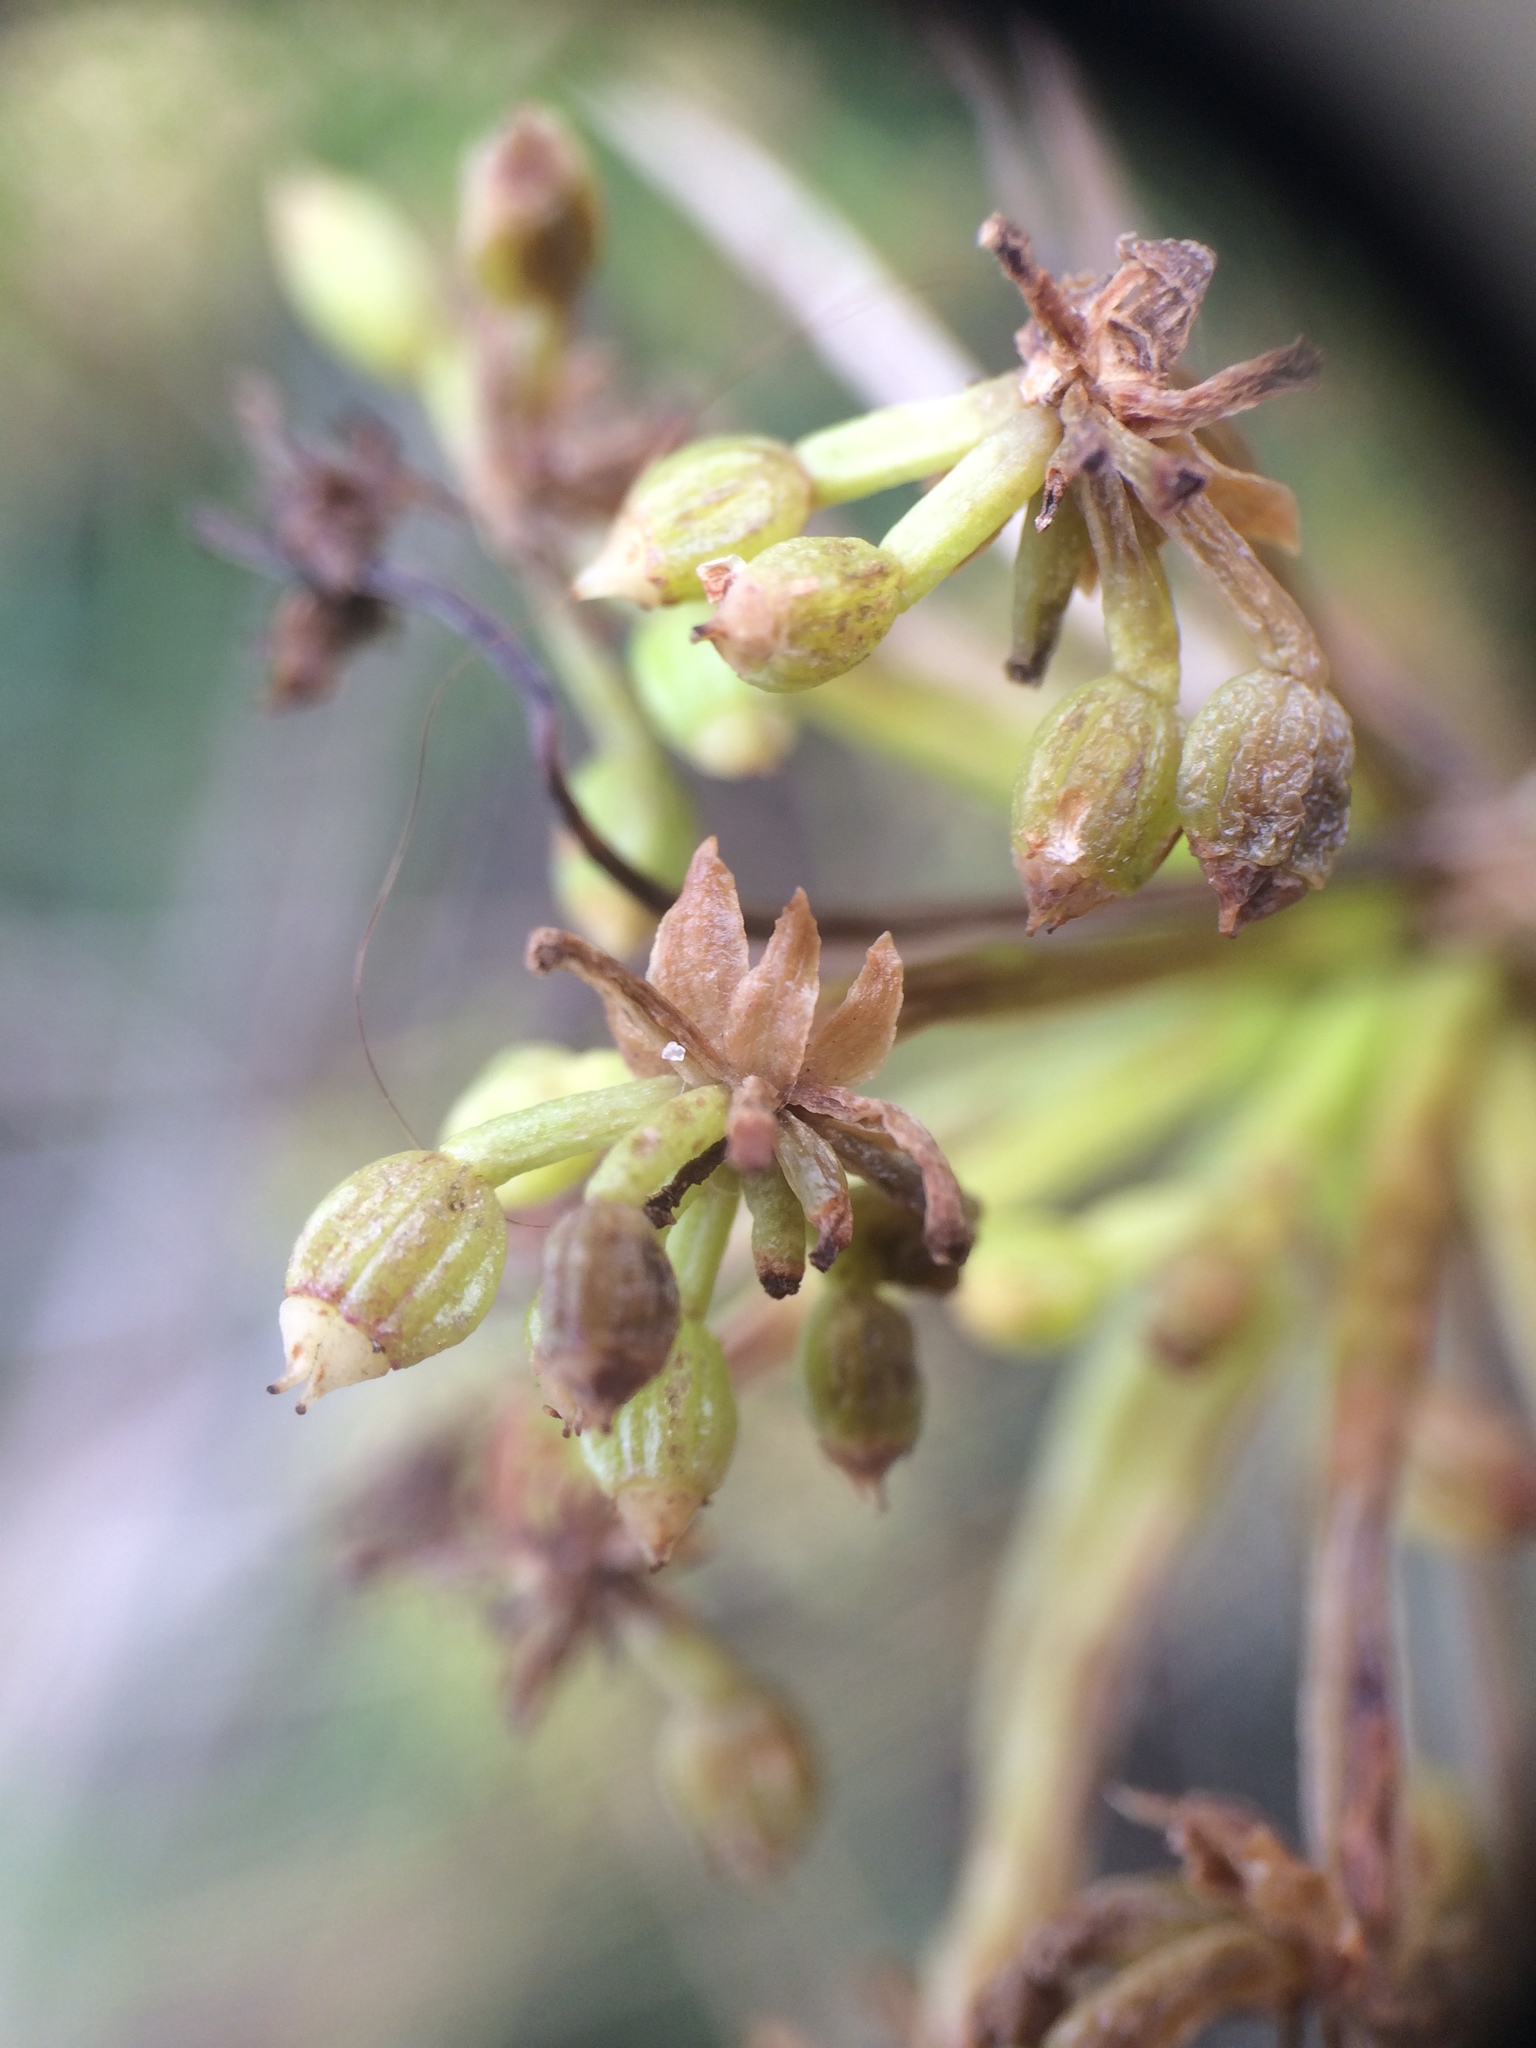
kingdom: Plantae
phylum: Tracheophyta
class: Magnoliopsida
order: Apiales
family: Apiaceae
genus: Crithmum
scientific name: Crithmum maritimum
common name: Rock samphire
